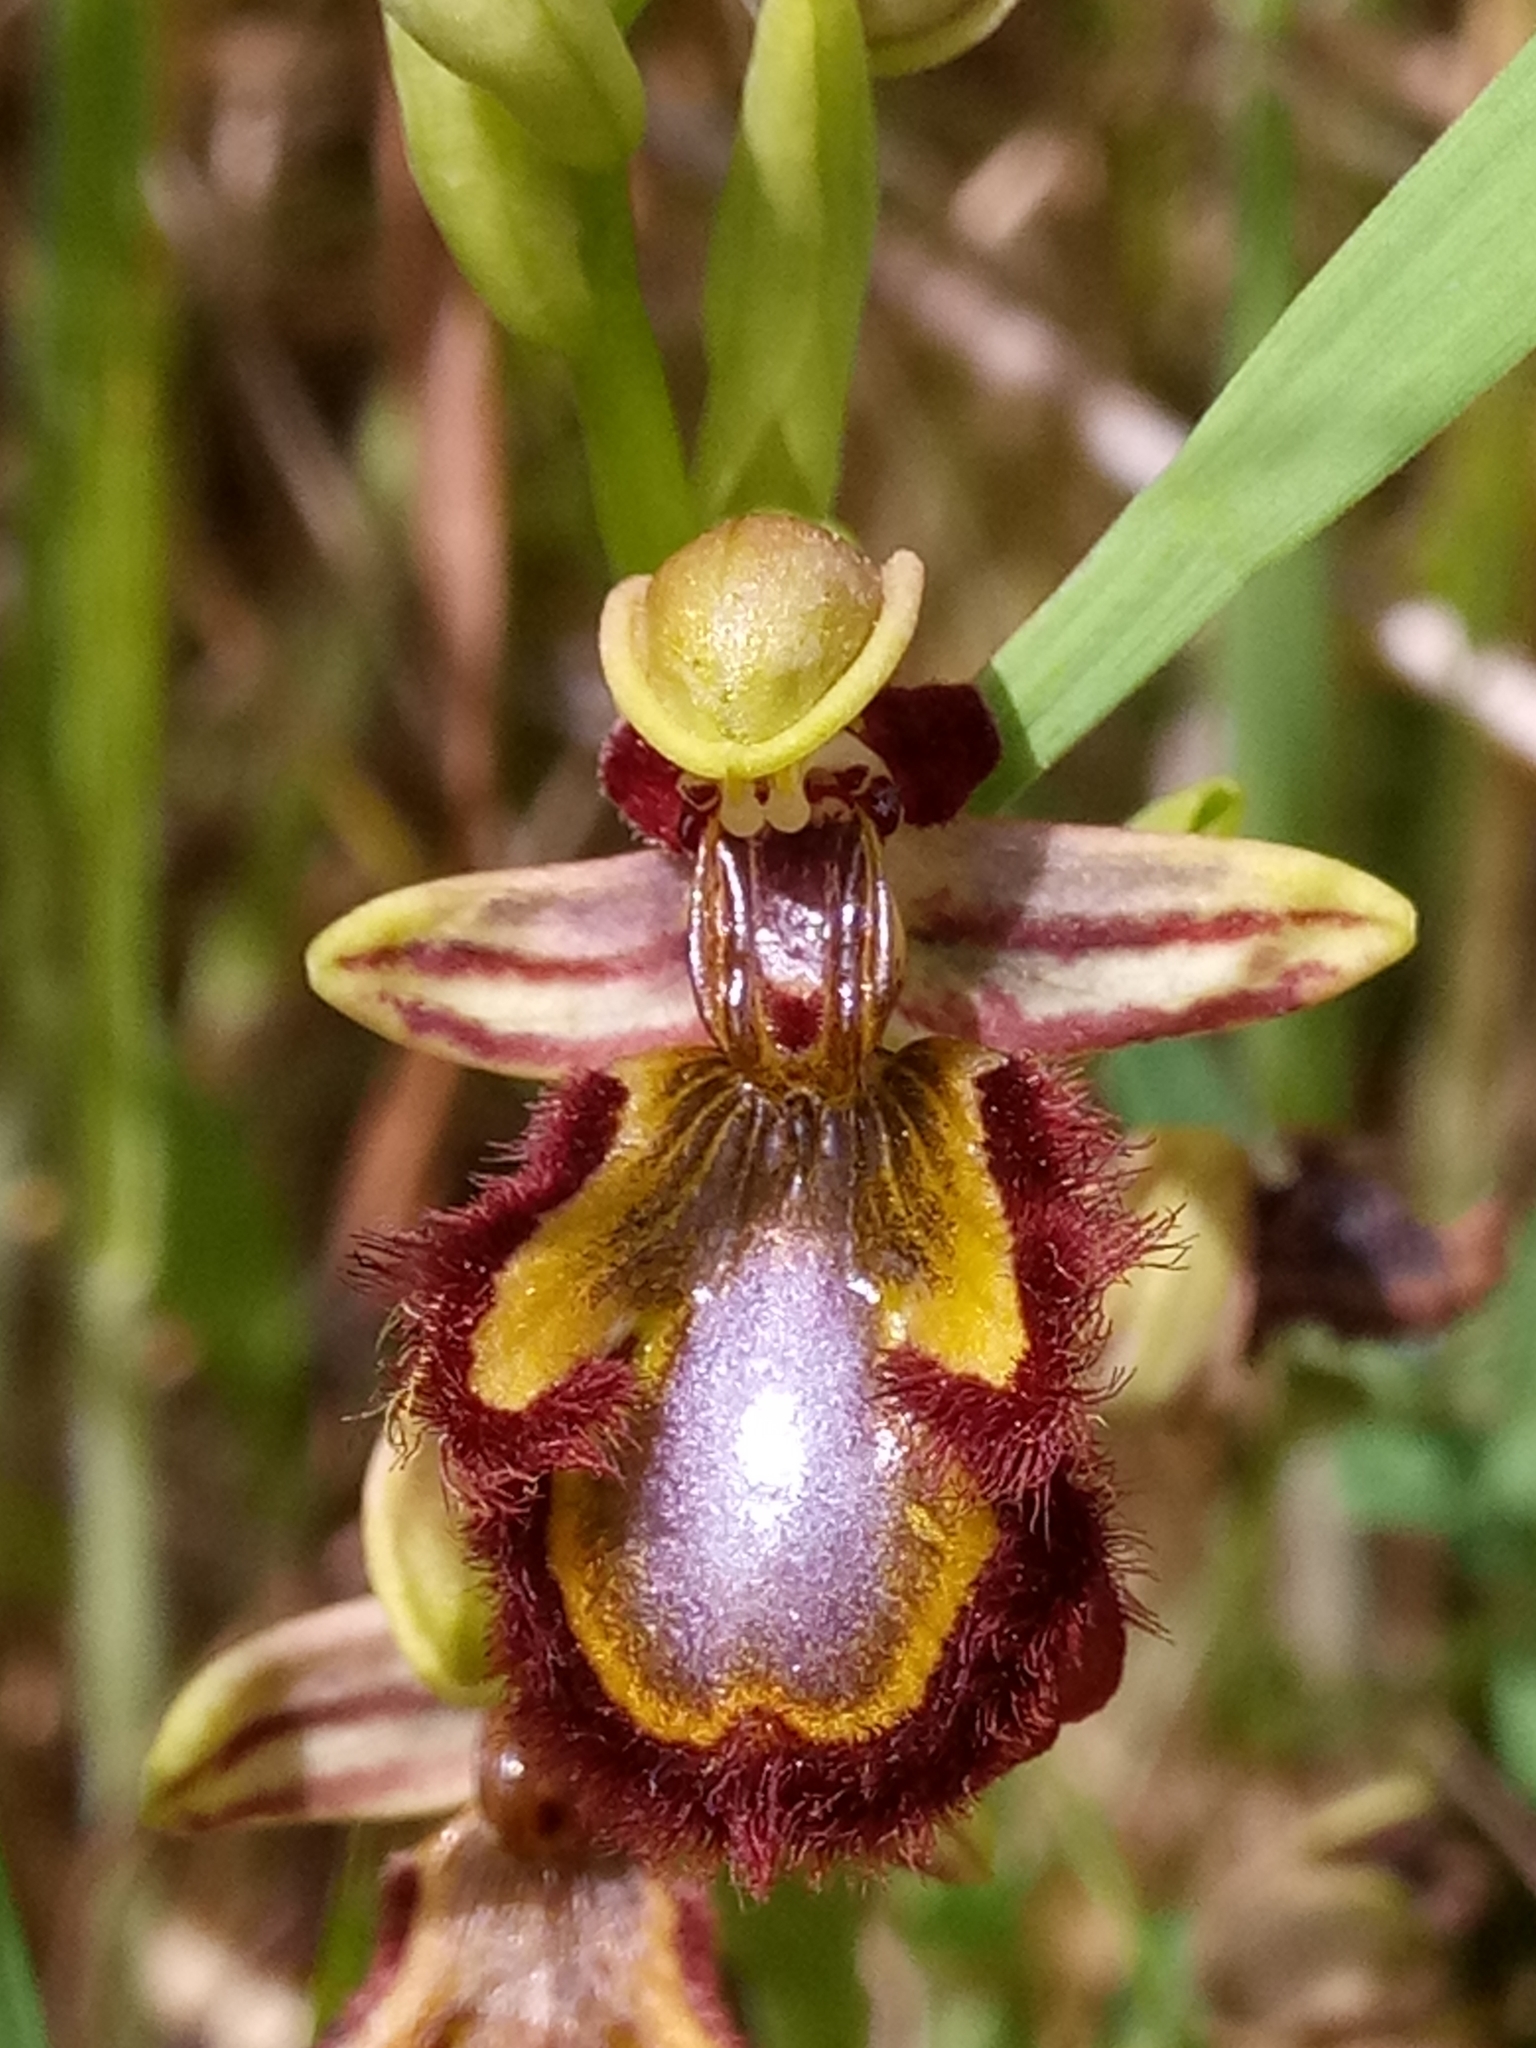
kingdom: Plantae
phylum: Tracheophyta
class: Liliopsida
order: Asparagales
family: Orchidaceae
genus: Ophrys
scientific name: Ophrys speculum
